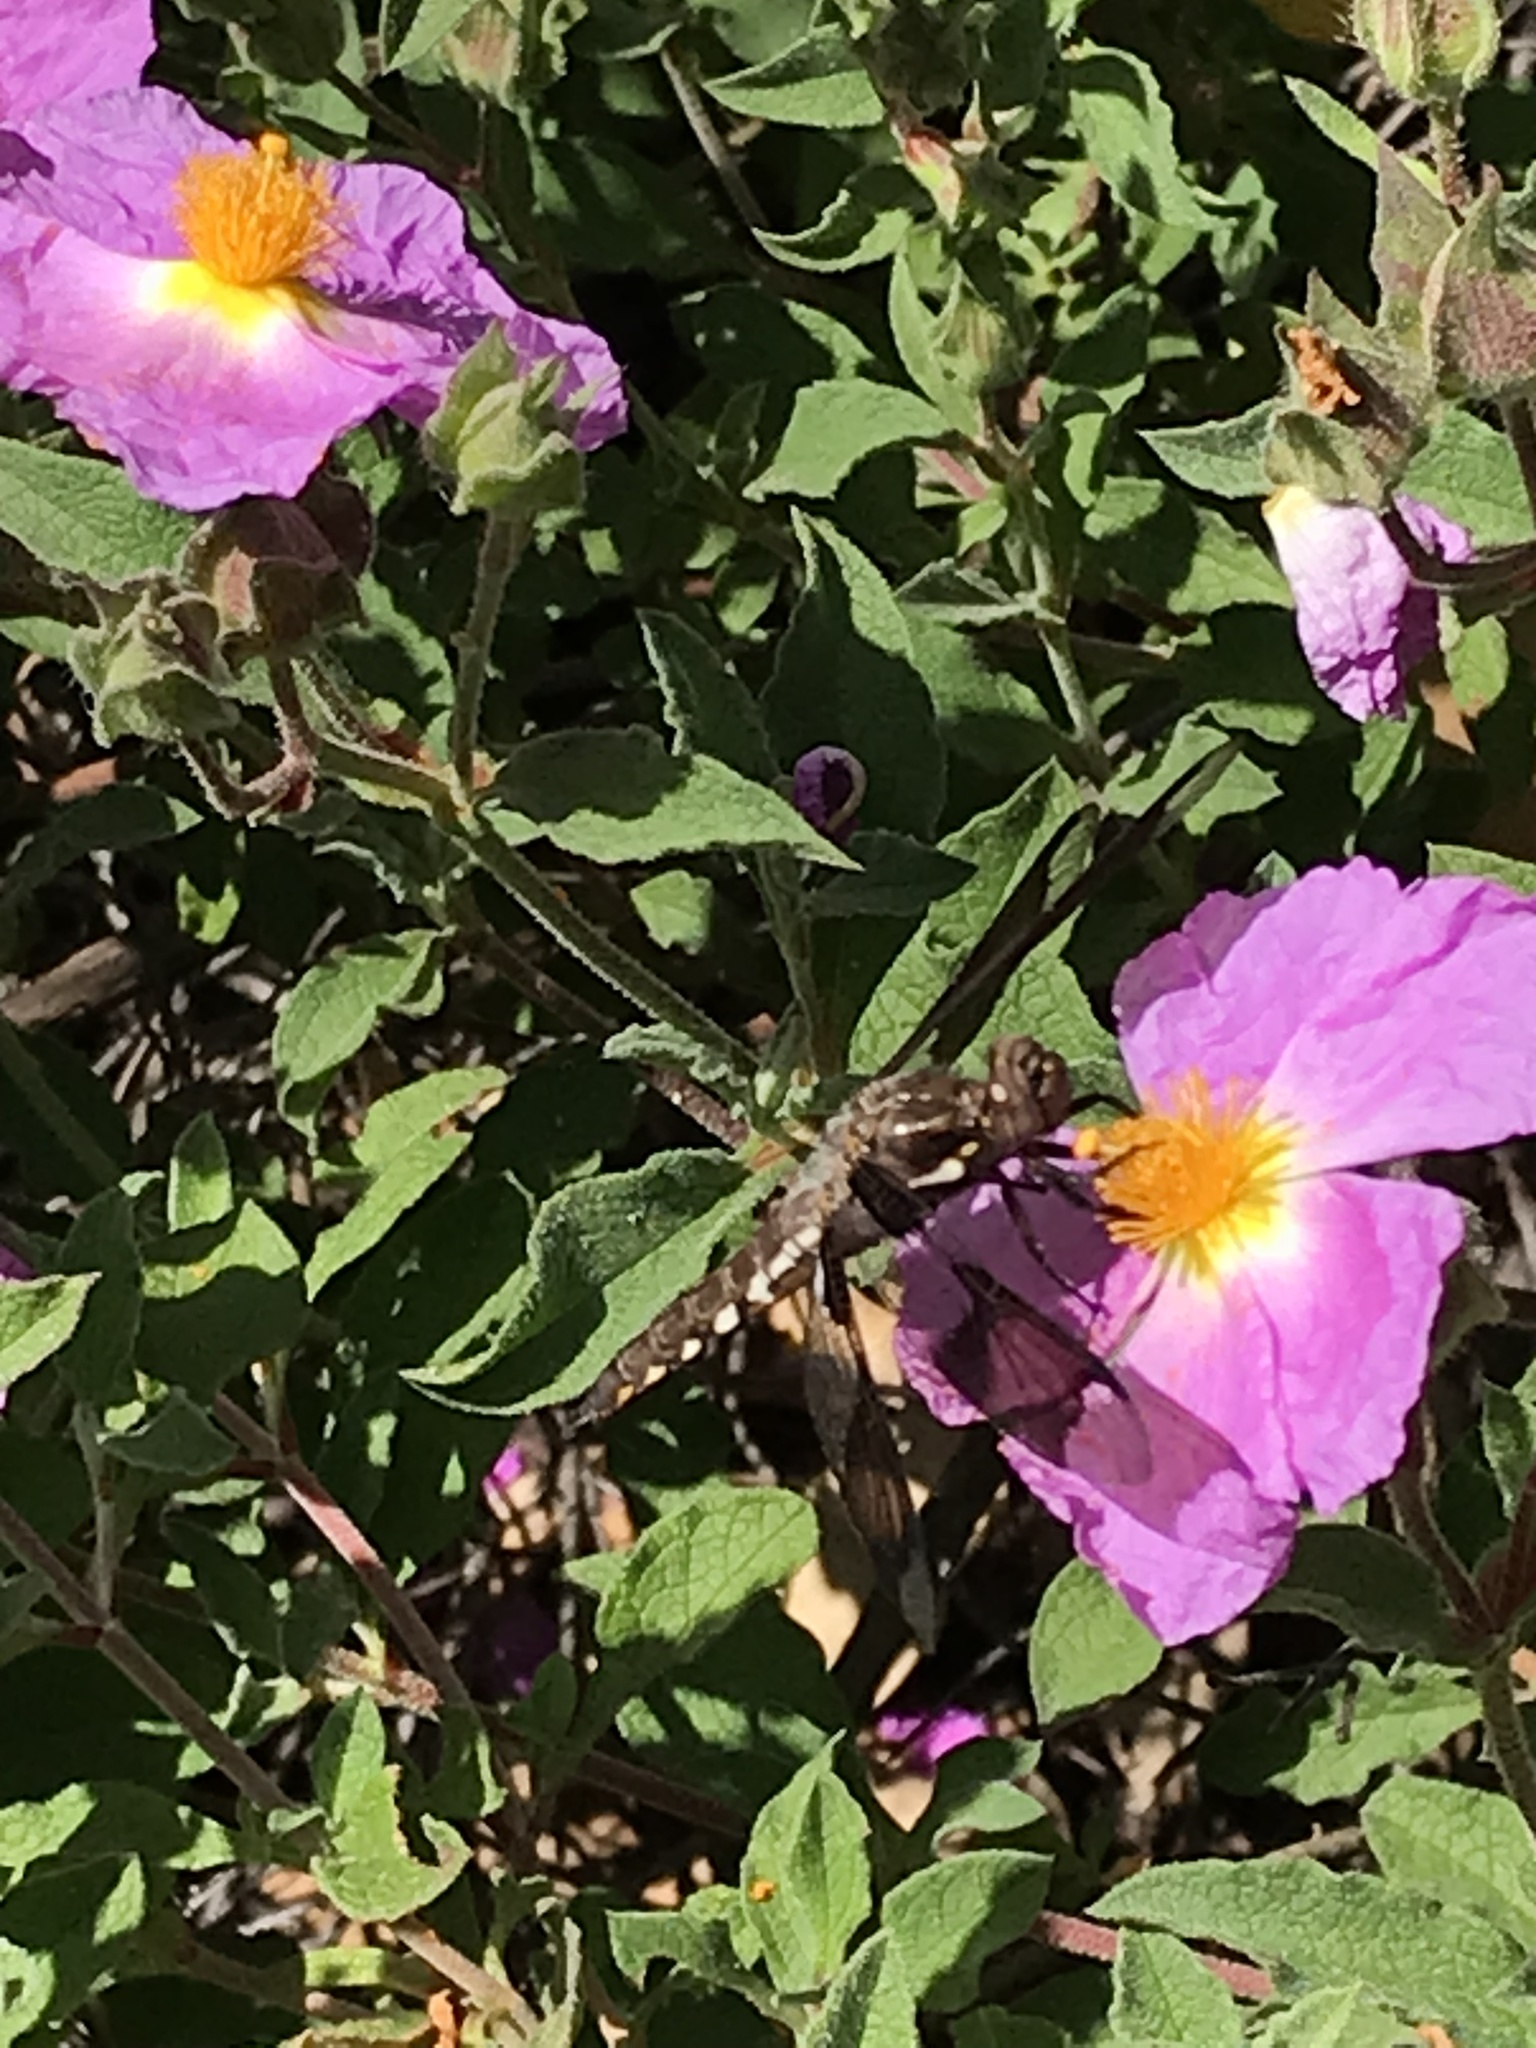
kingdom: Animalia
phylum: Arthropoda
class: Insecta
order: Odonata
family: Libellulidae
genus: Plathemis
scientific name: Plathemis lydia
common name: Common whitetail
